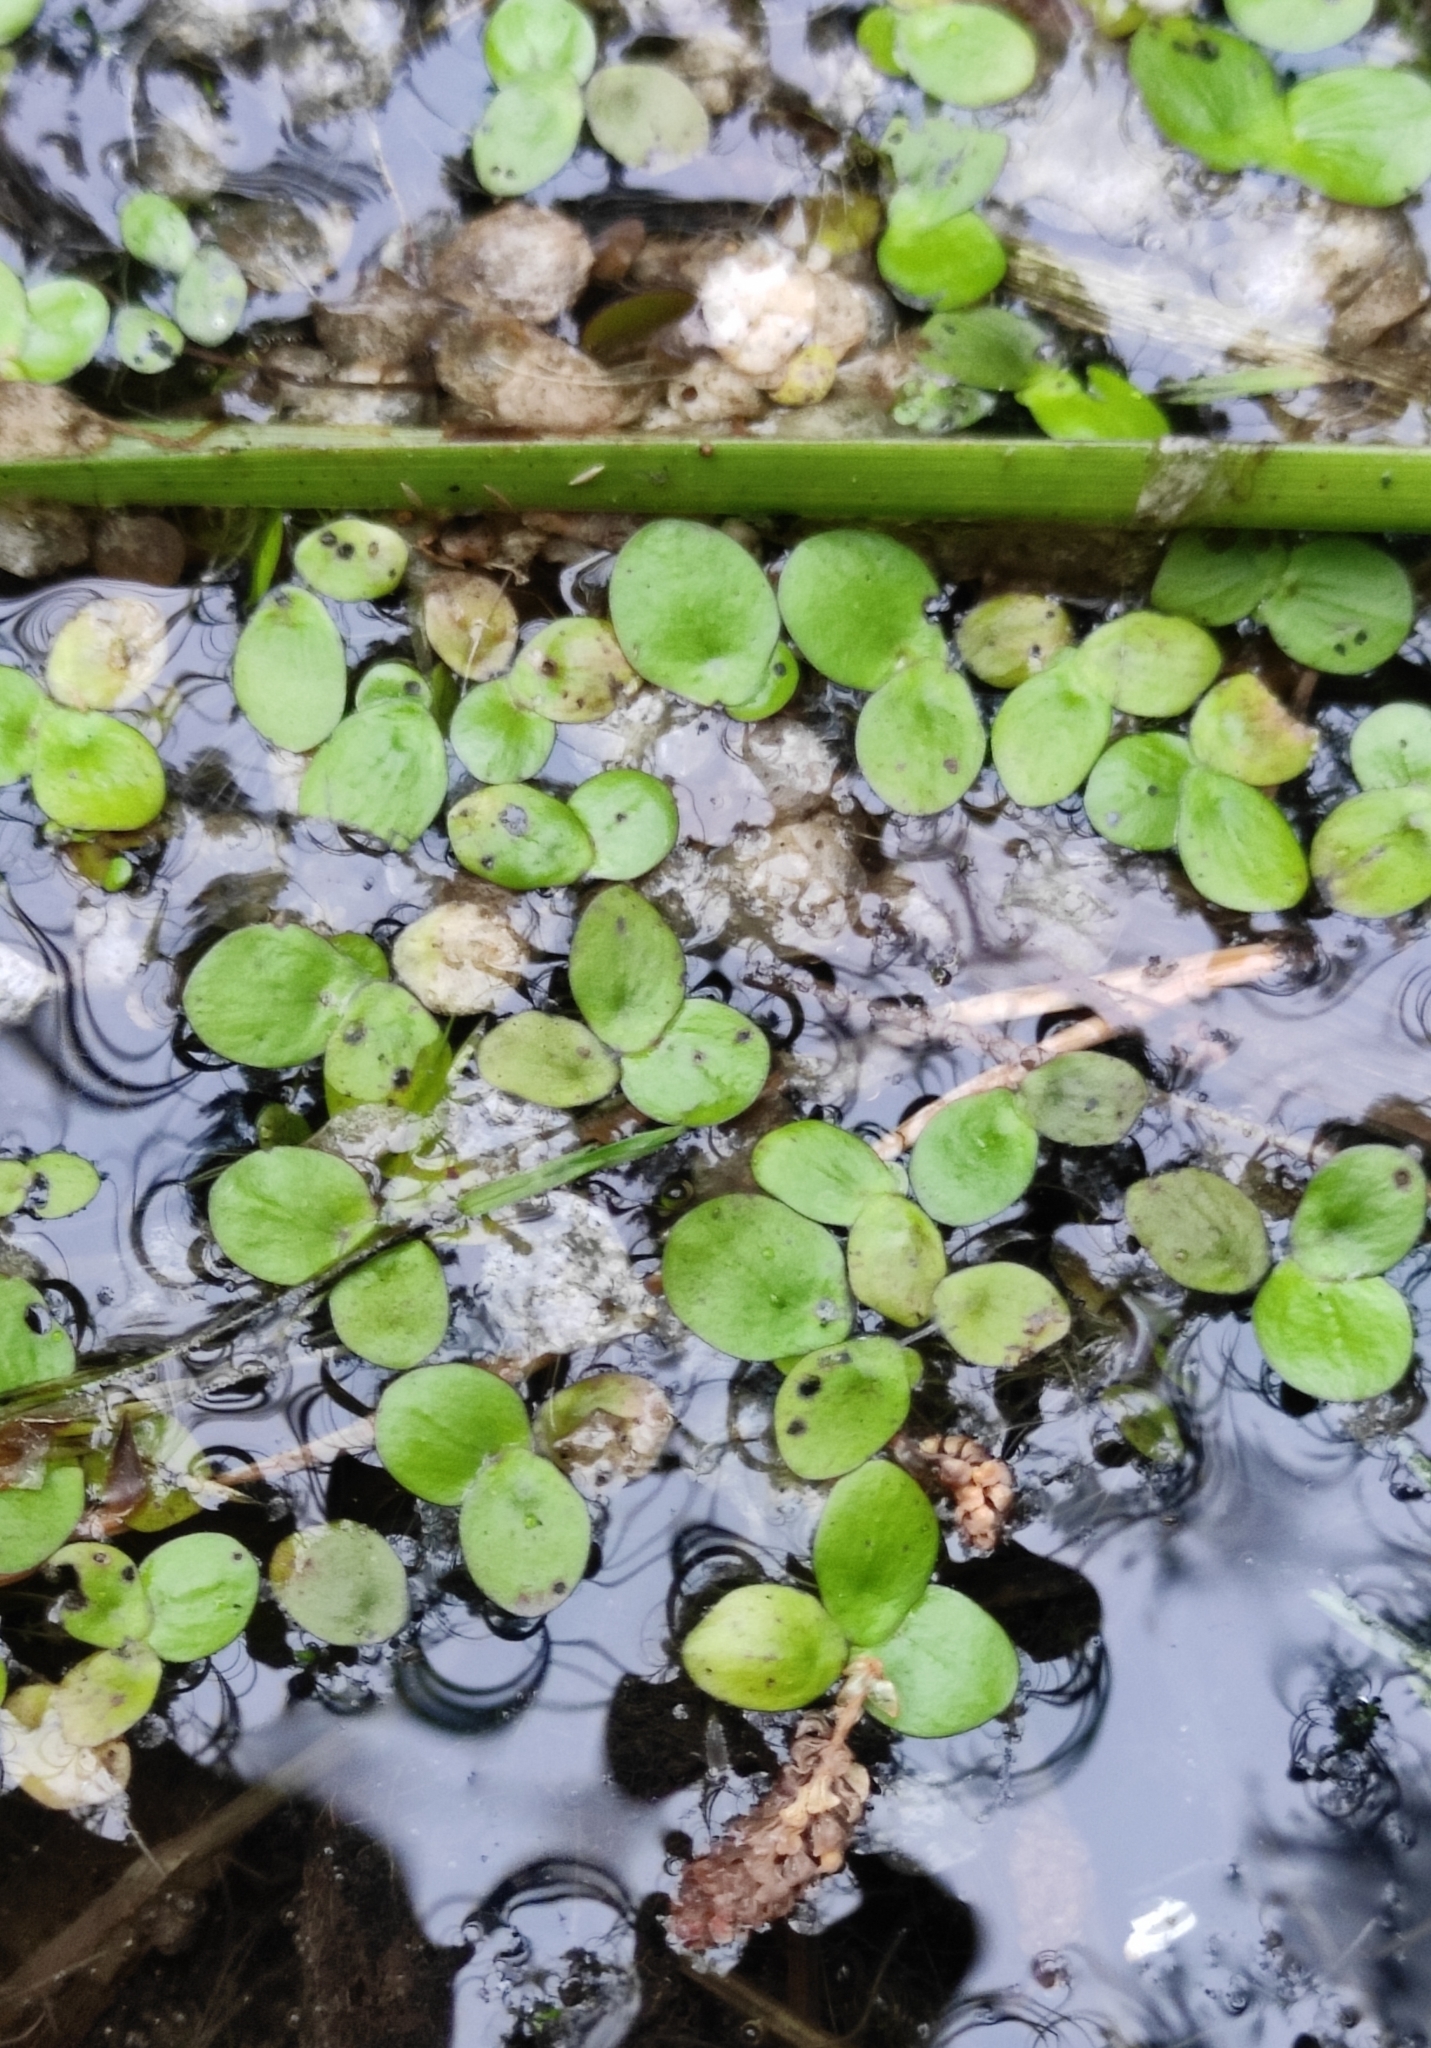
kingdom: Plantae
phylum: Tracheophyta
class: Liliopsida
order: Alismatales
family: Araceae
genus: Spirodela
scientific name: Spirodela polyrhiza
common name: Great duckweed
